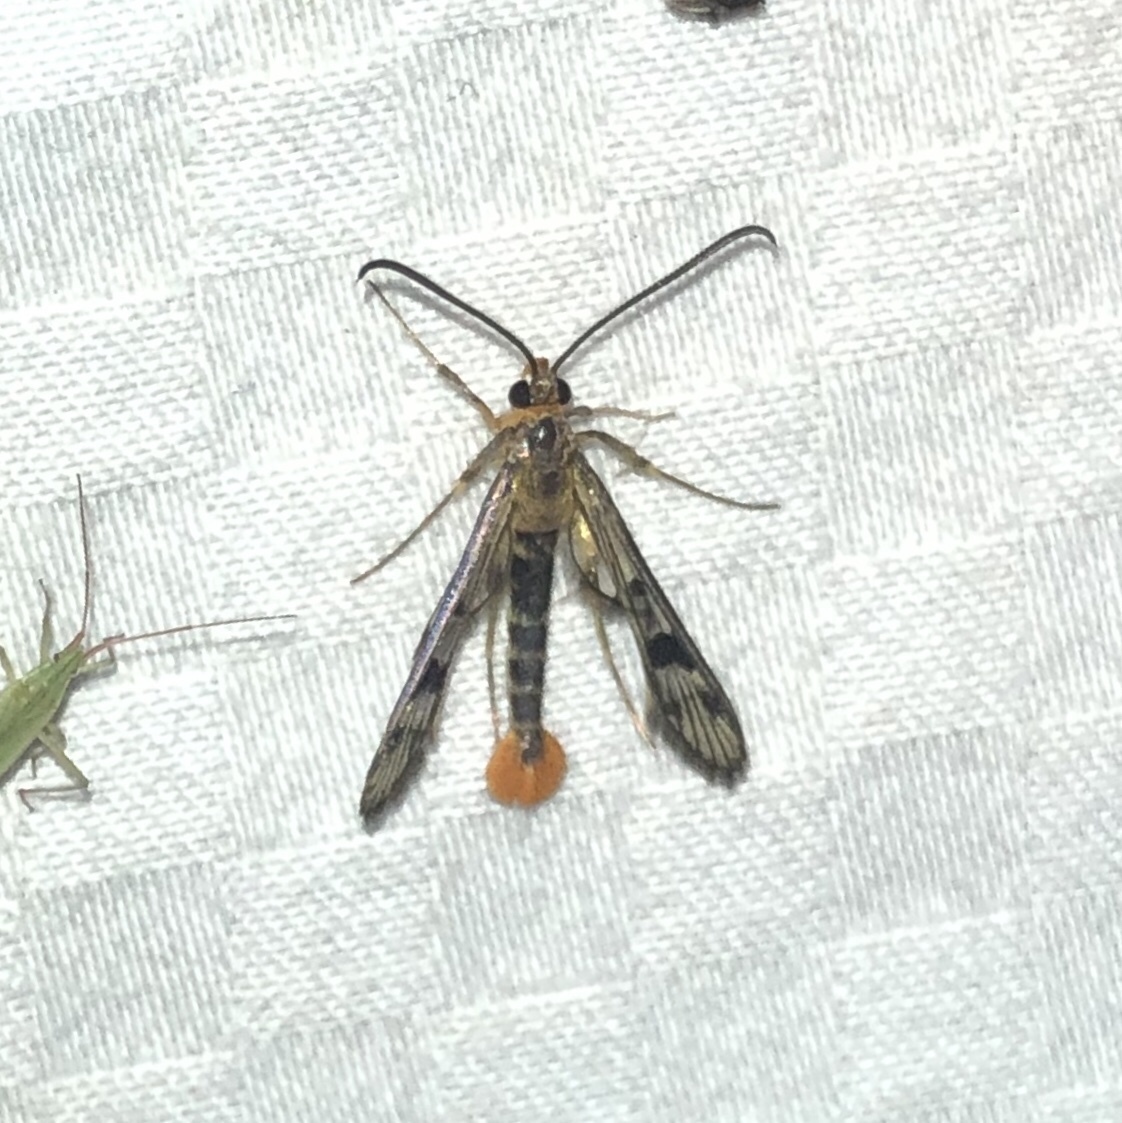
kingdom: Animalia
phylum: Arthropoda
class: Insecta
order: Lepidoptera
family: Sesiidae
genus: Synanthedon
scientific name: Synanthedon acerni
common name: Maple callus borer moth
